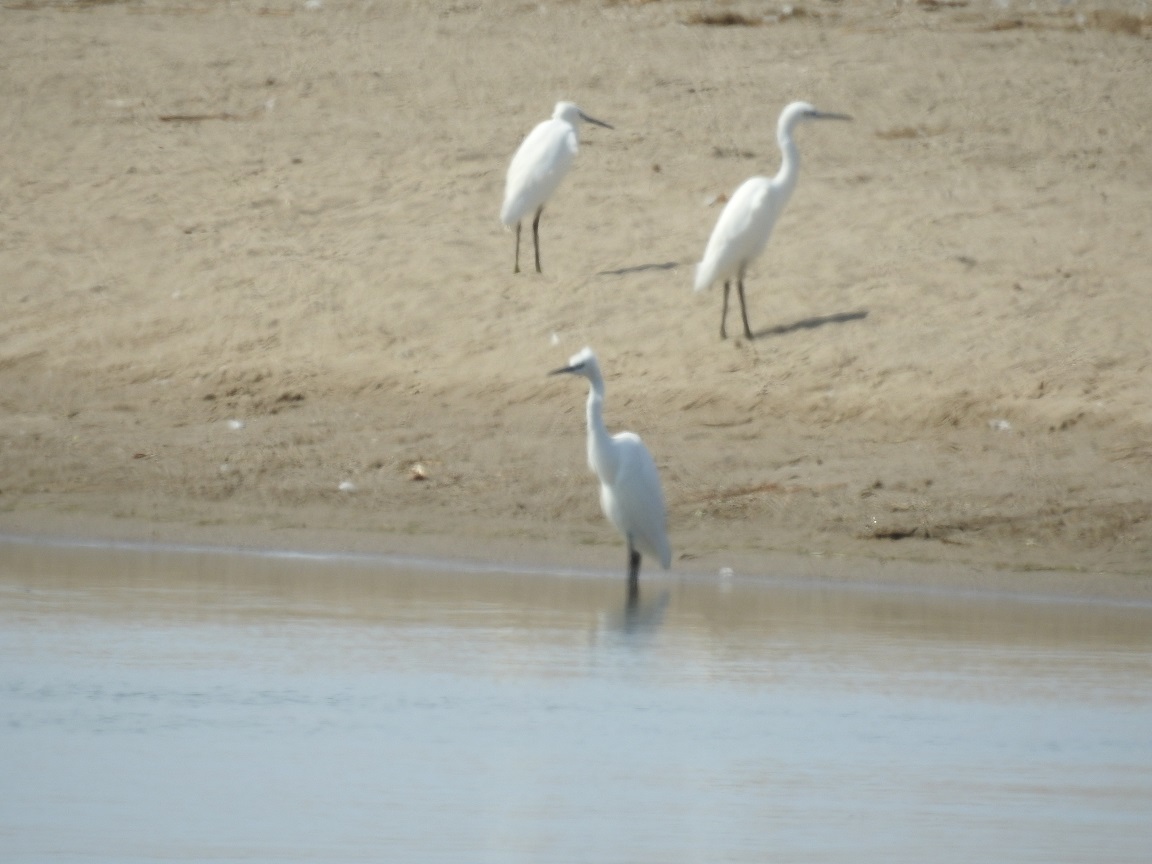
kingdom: Animalia
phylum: Chordata
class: Aves
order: Pelecaniformes
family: Ardeidae
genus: Egretta
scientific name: Egretta garzetta
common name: Little egret
